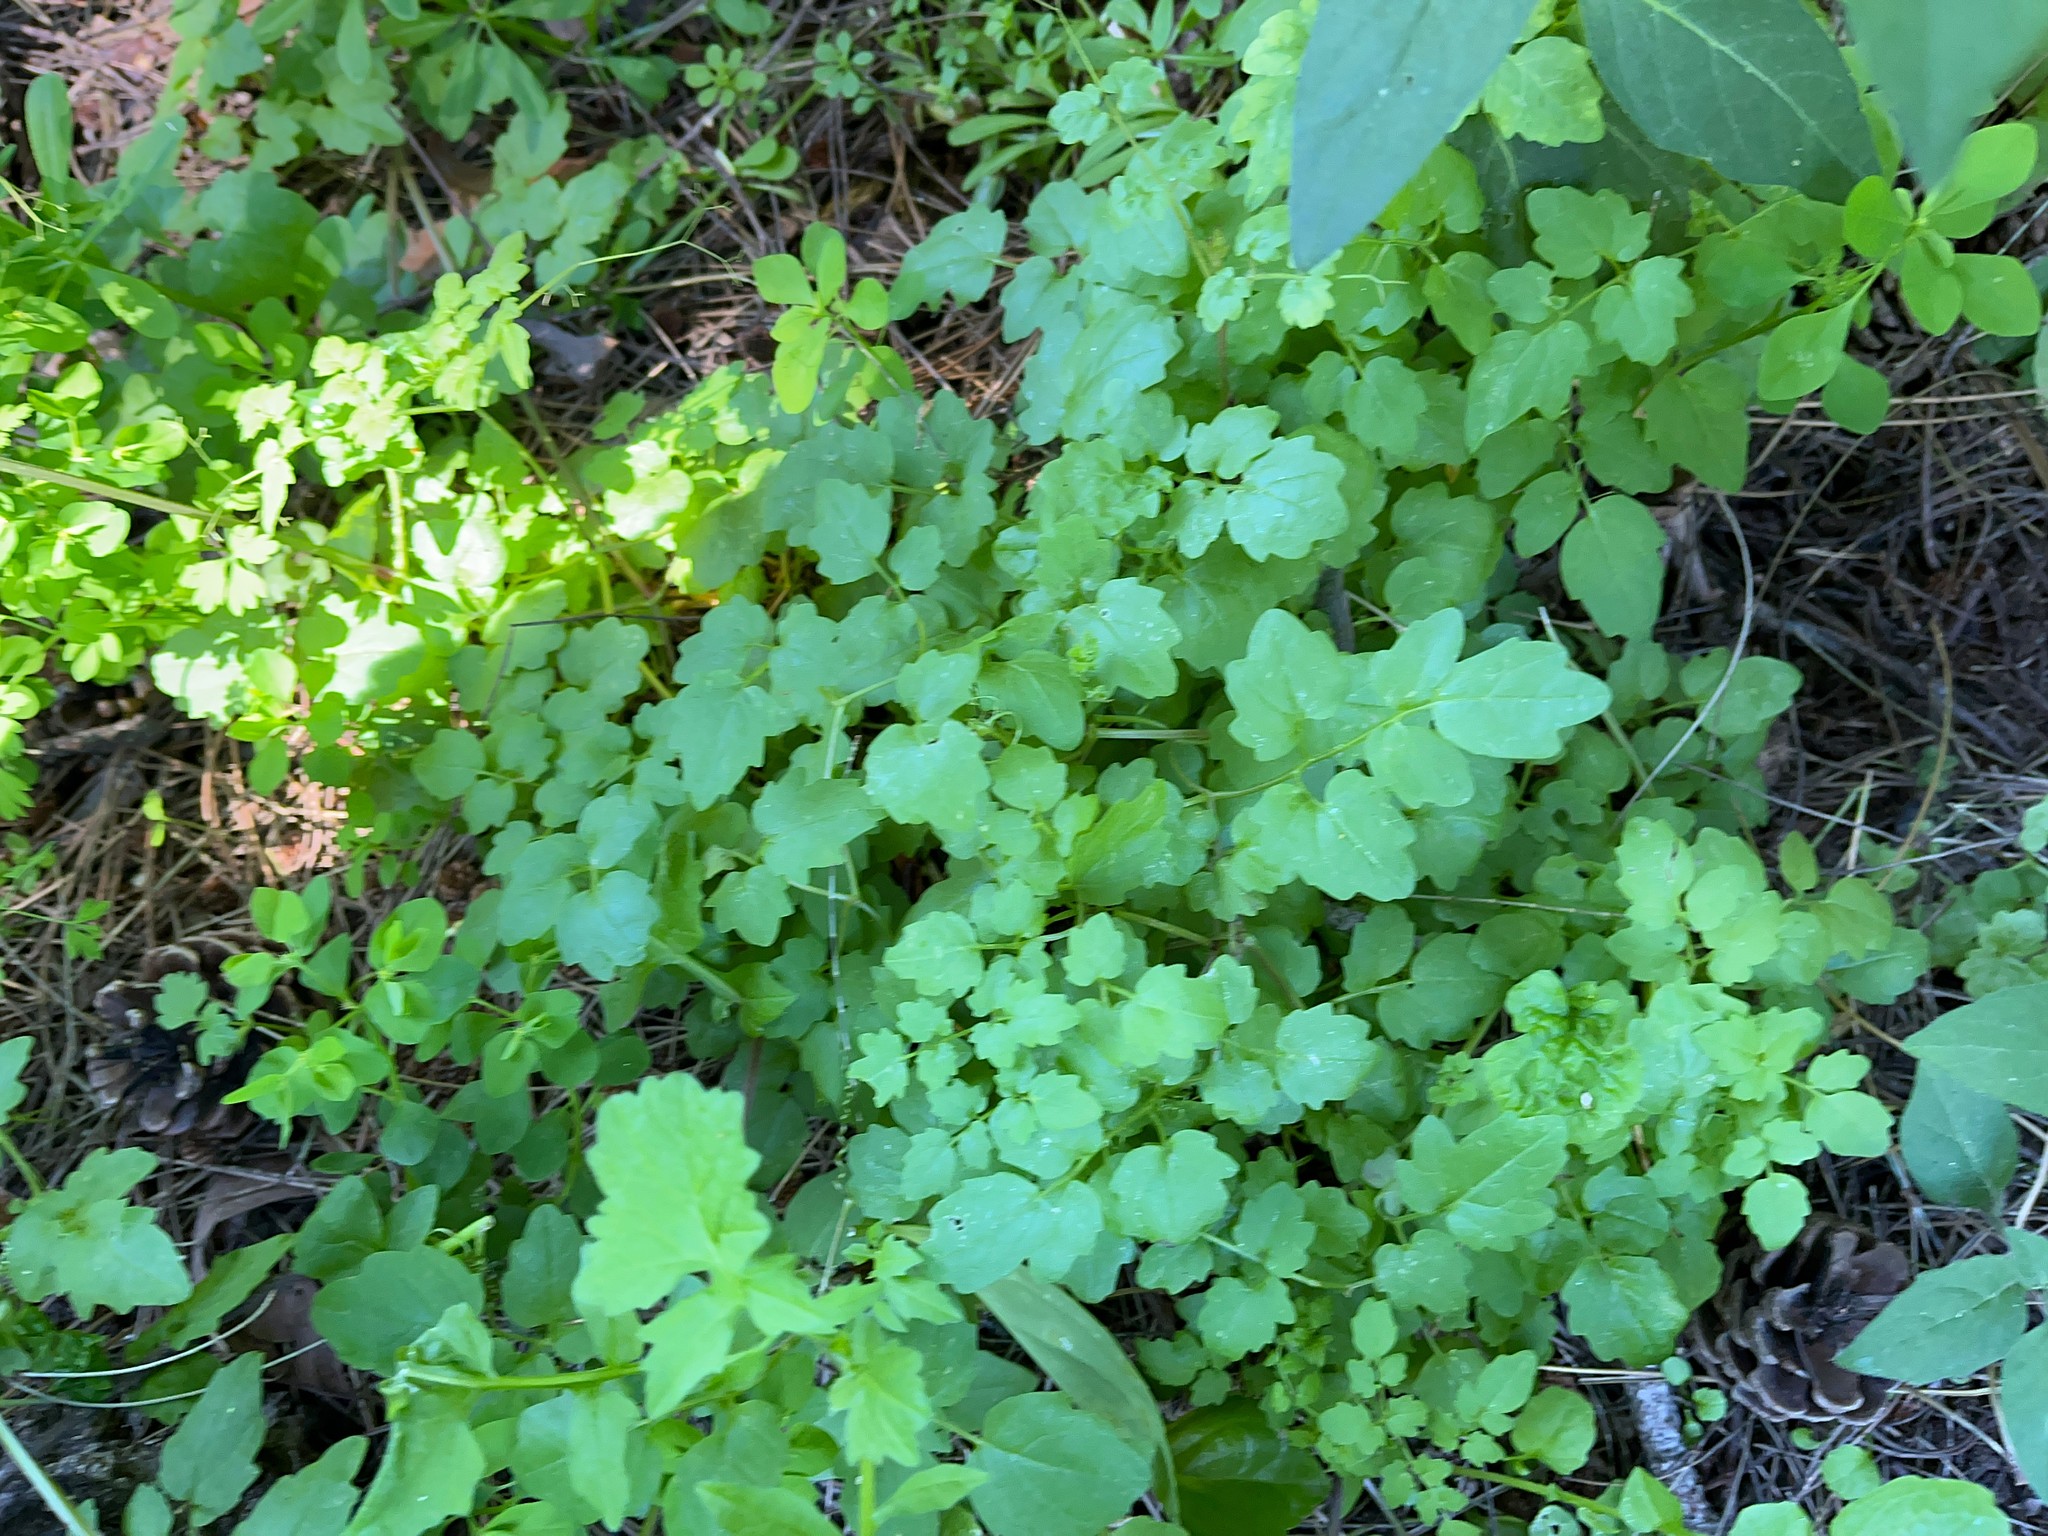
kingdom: Plantae
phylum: Tracheophyta
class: Magnoliopsida
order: Lamiales
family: Bignoniaceae
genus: Eccremocarpus
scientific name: Eccremocarpus scaber
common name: Chilean glory-flower
